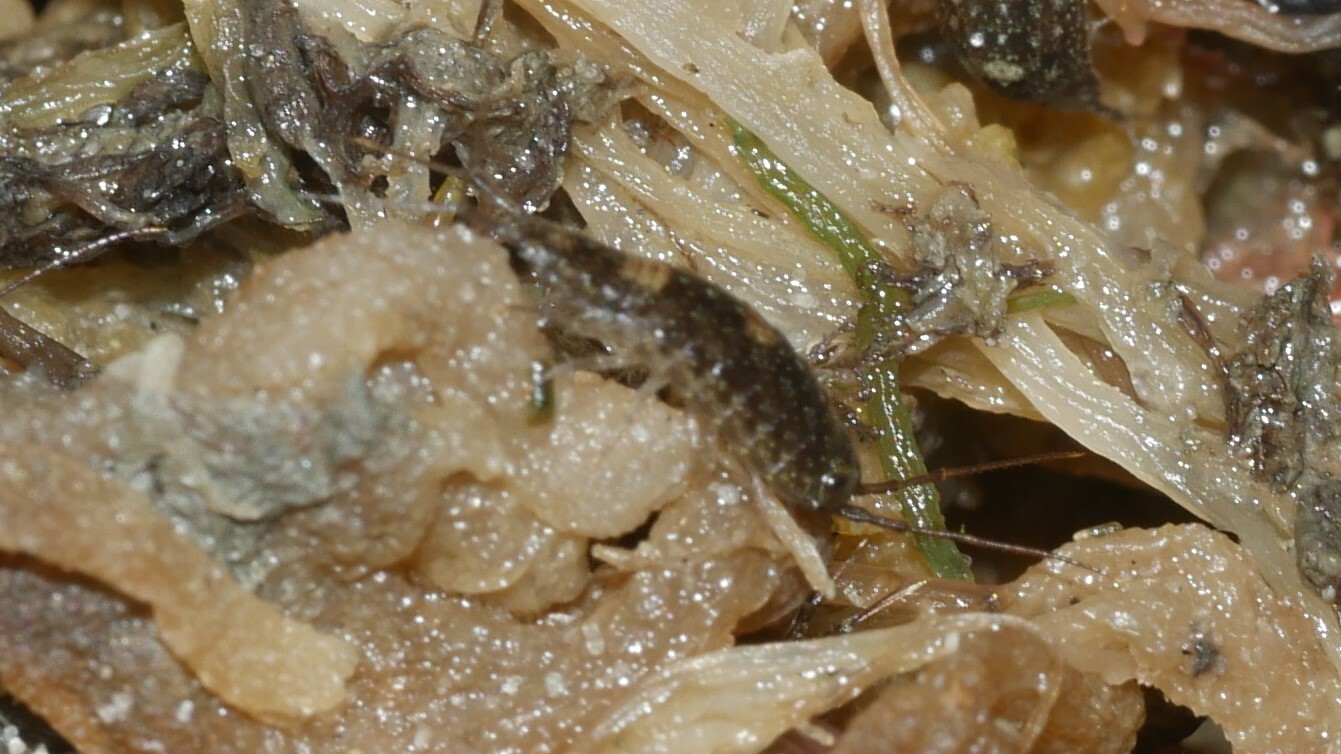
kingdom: Animalia
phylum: Arthropoda
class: Malacostraca
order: Isopoda
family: Ligiidae
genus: Ligia
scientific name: Ligia exotica
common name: Wharf roach
